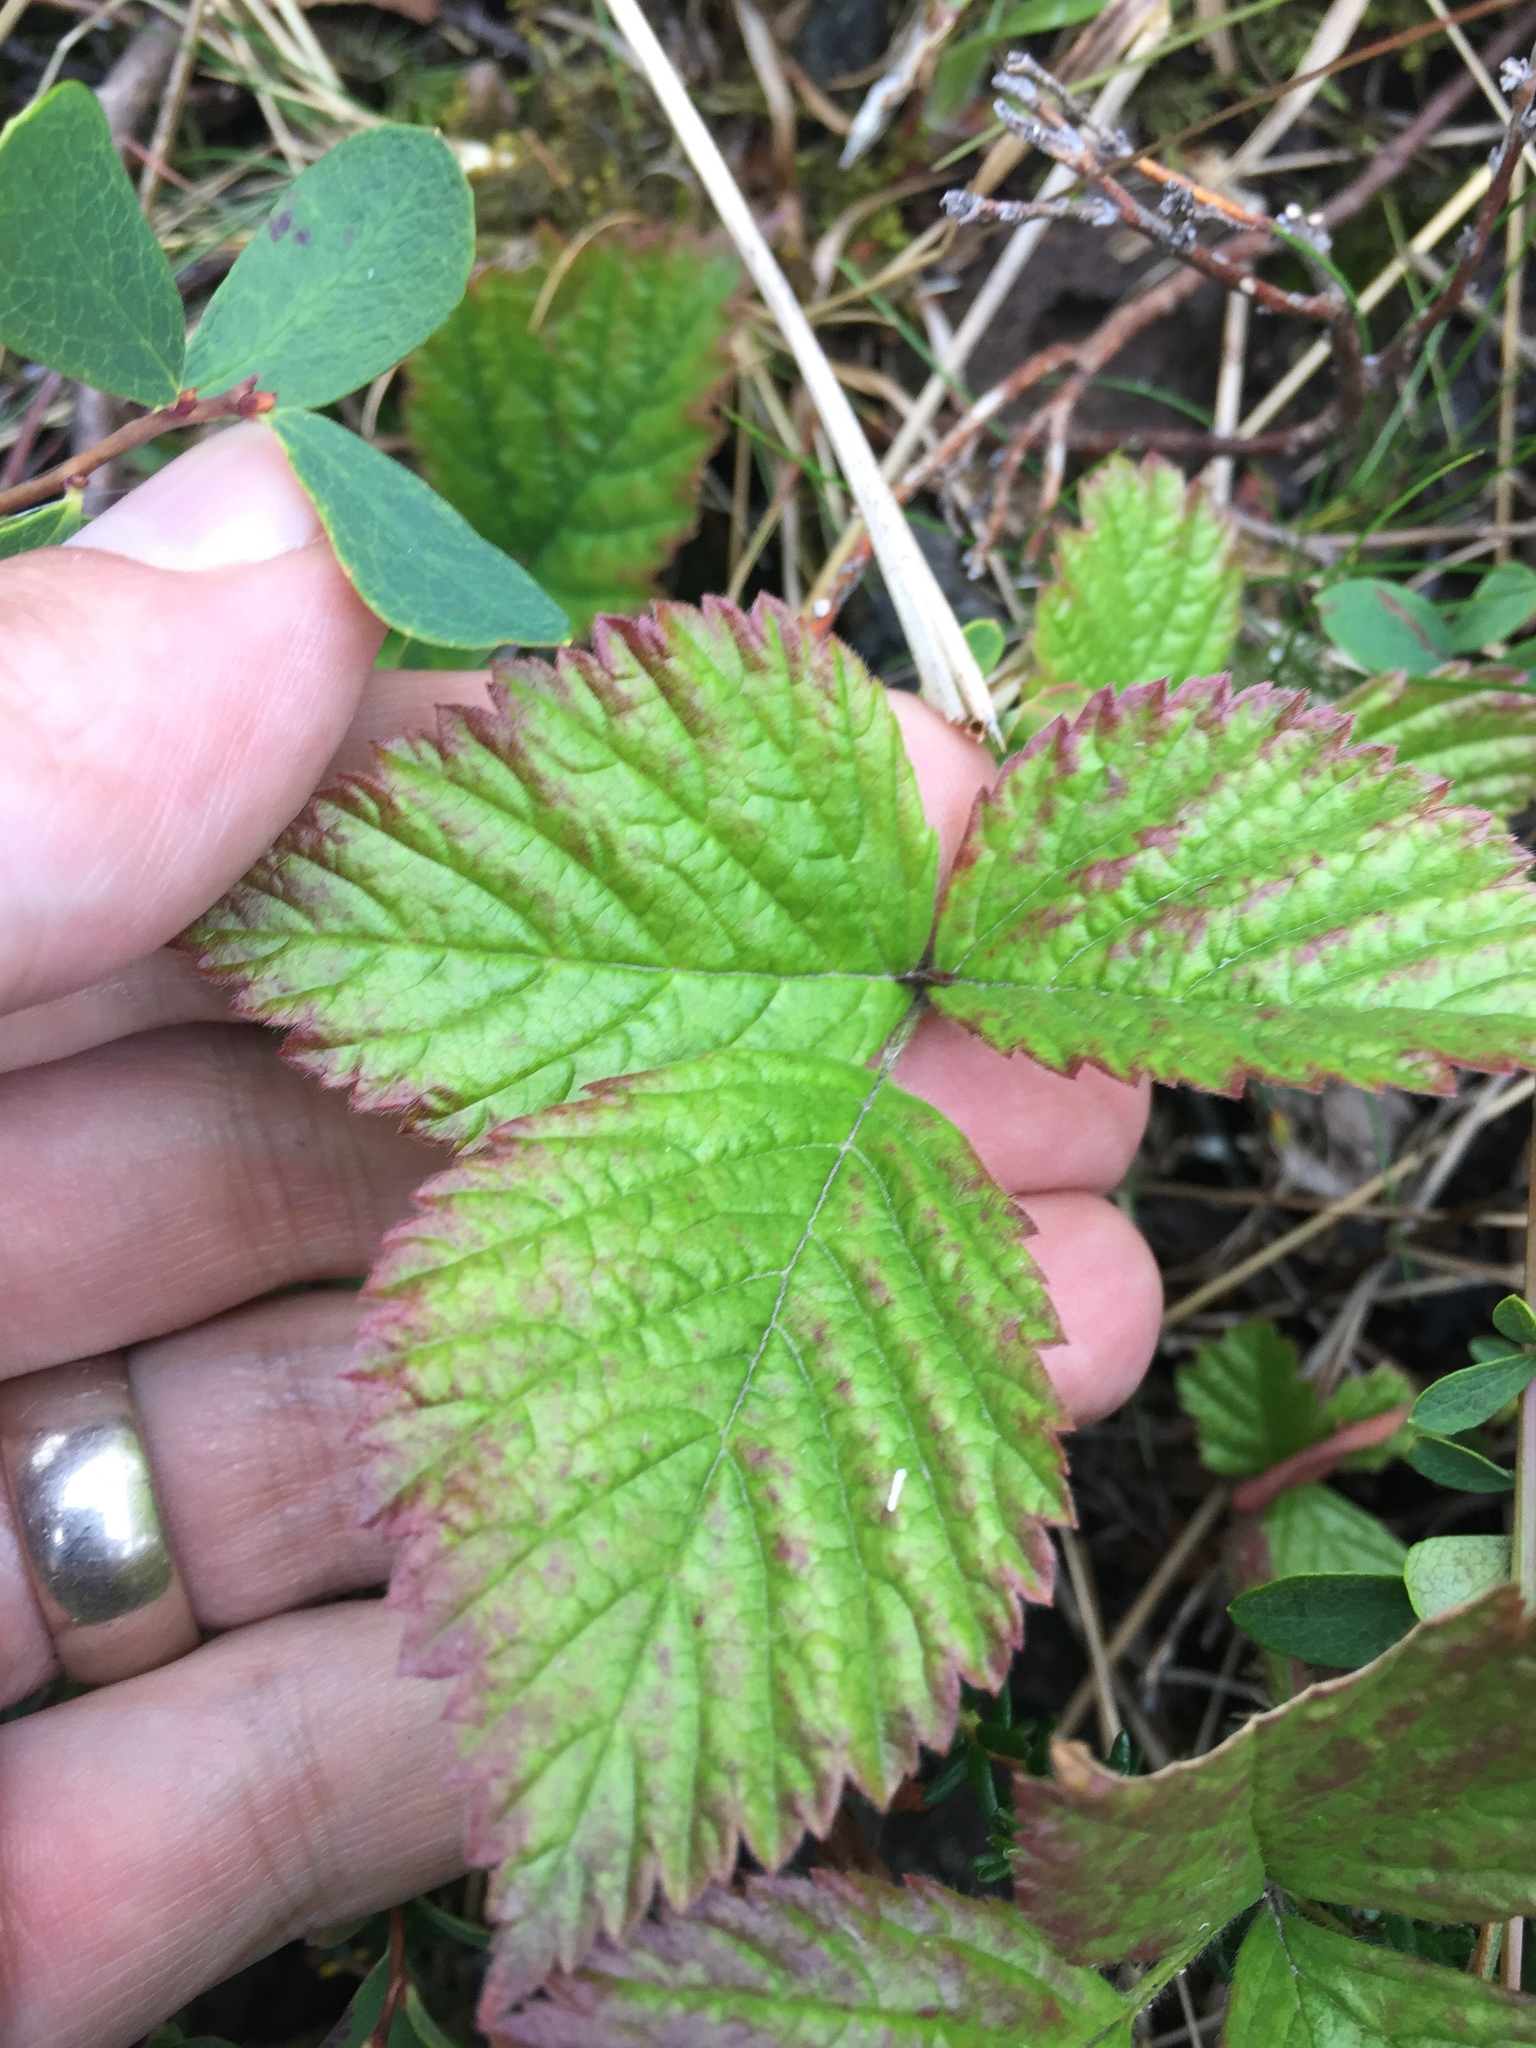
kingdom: Plantae
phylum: Tracheophyta
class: Magnoliopsida
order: Rosales
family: Rosaceae
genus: Rubus
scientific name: Rubus saxatilis
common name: Stone bramble
